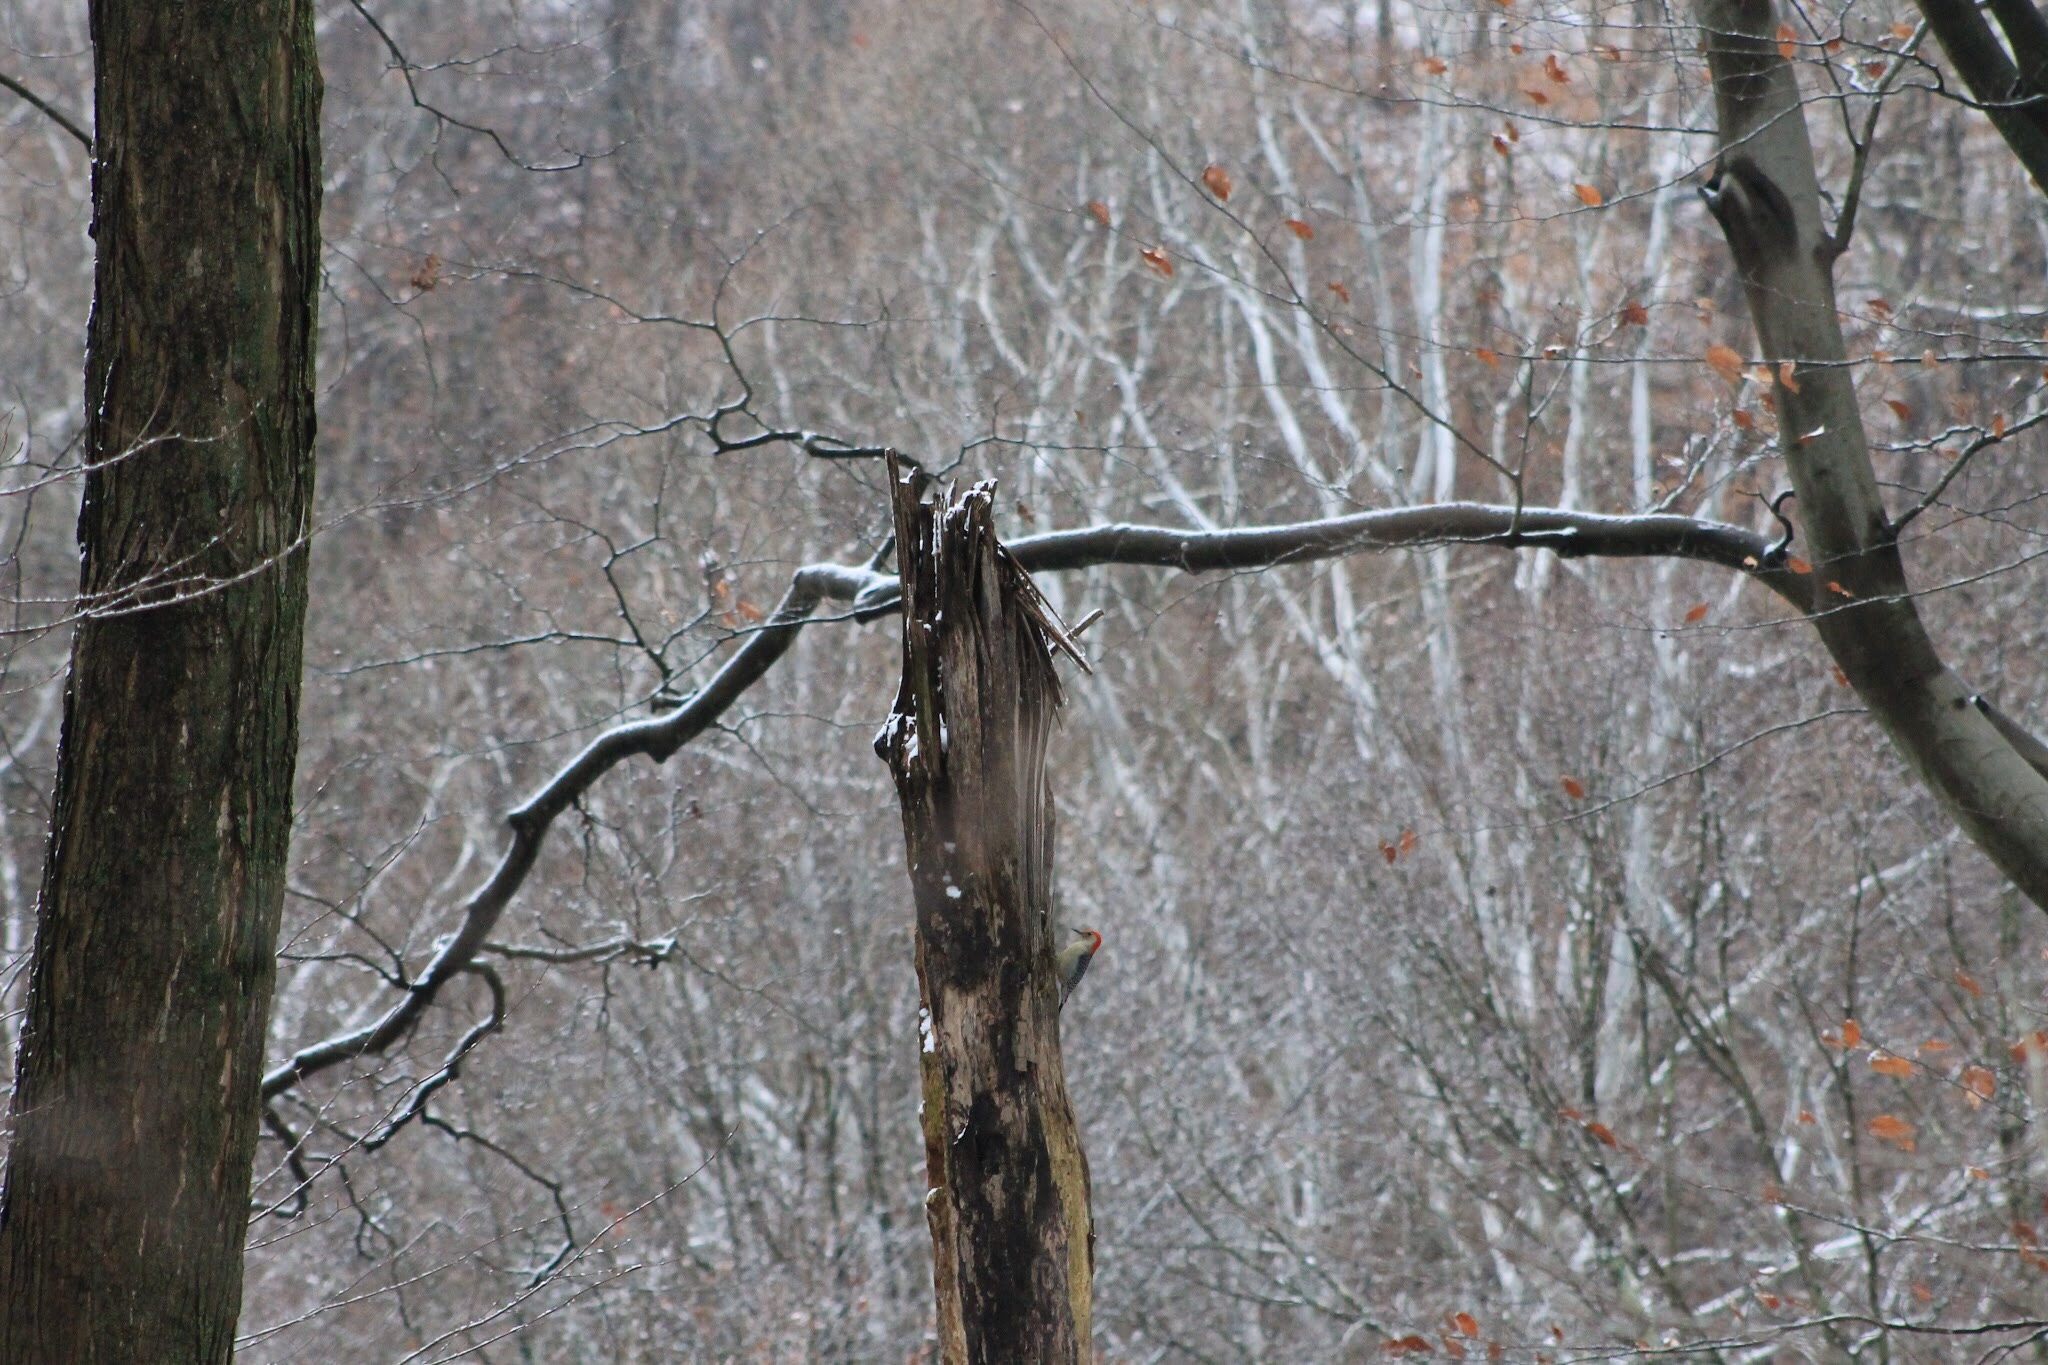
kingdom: Animalia
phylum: Chordata
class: Aves
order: Piciformes
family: Picidae
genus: Melanerpes
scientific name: Melanerpes carolinus
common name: Red-bellied woodpecker
